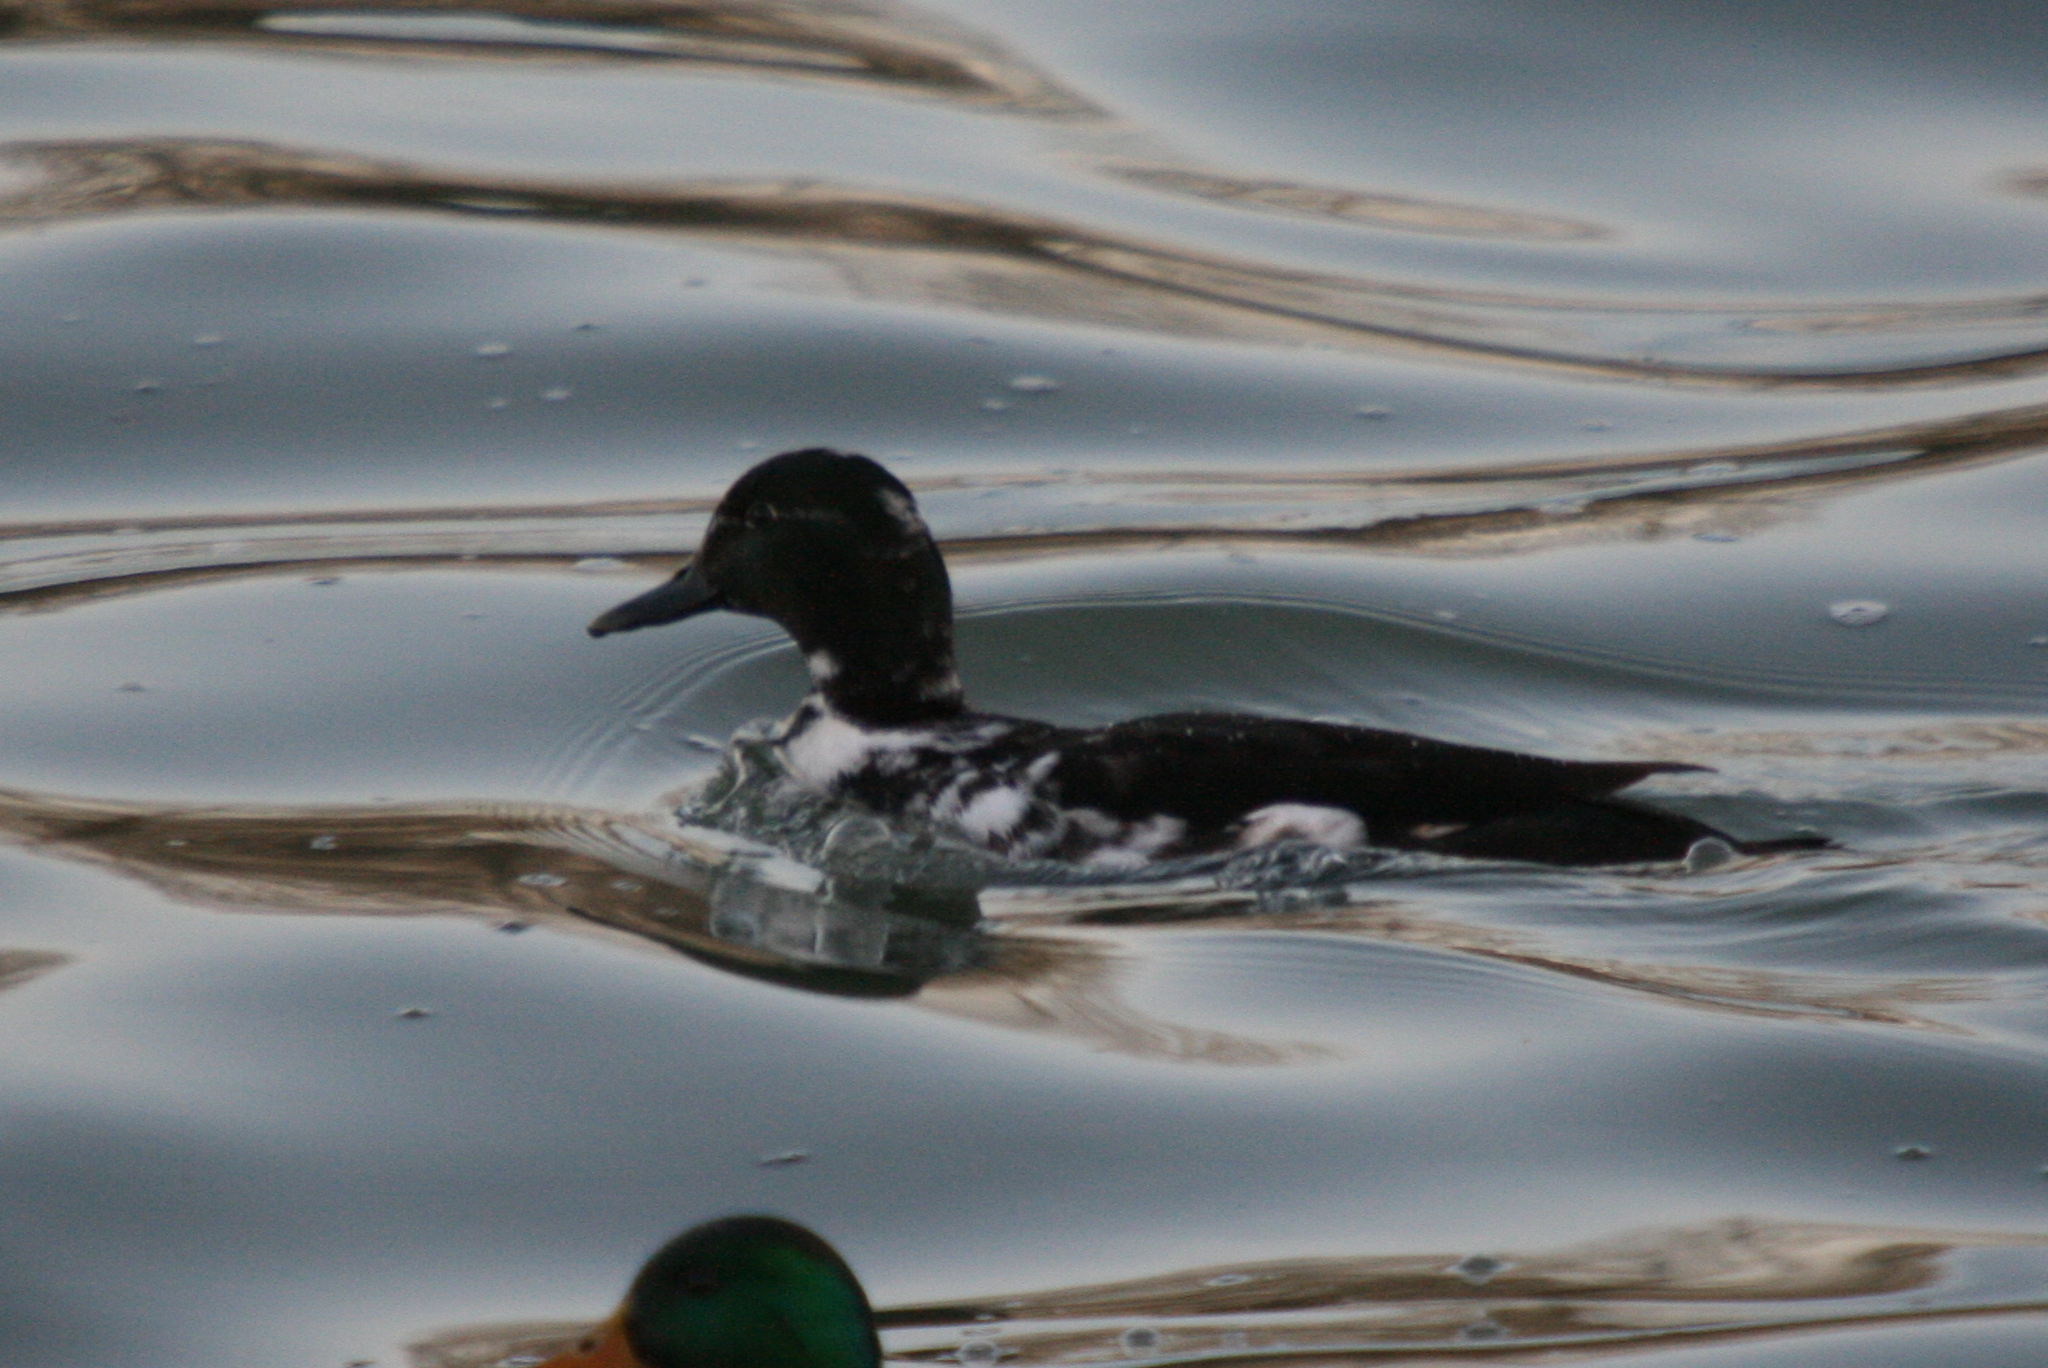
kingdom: Animalia
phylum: Chordata
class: Aves
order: Anseriformes
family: Anatidae
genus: Anas
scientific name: Anas platyrhynchos
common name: Mallard
